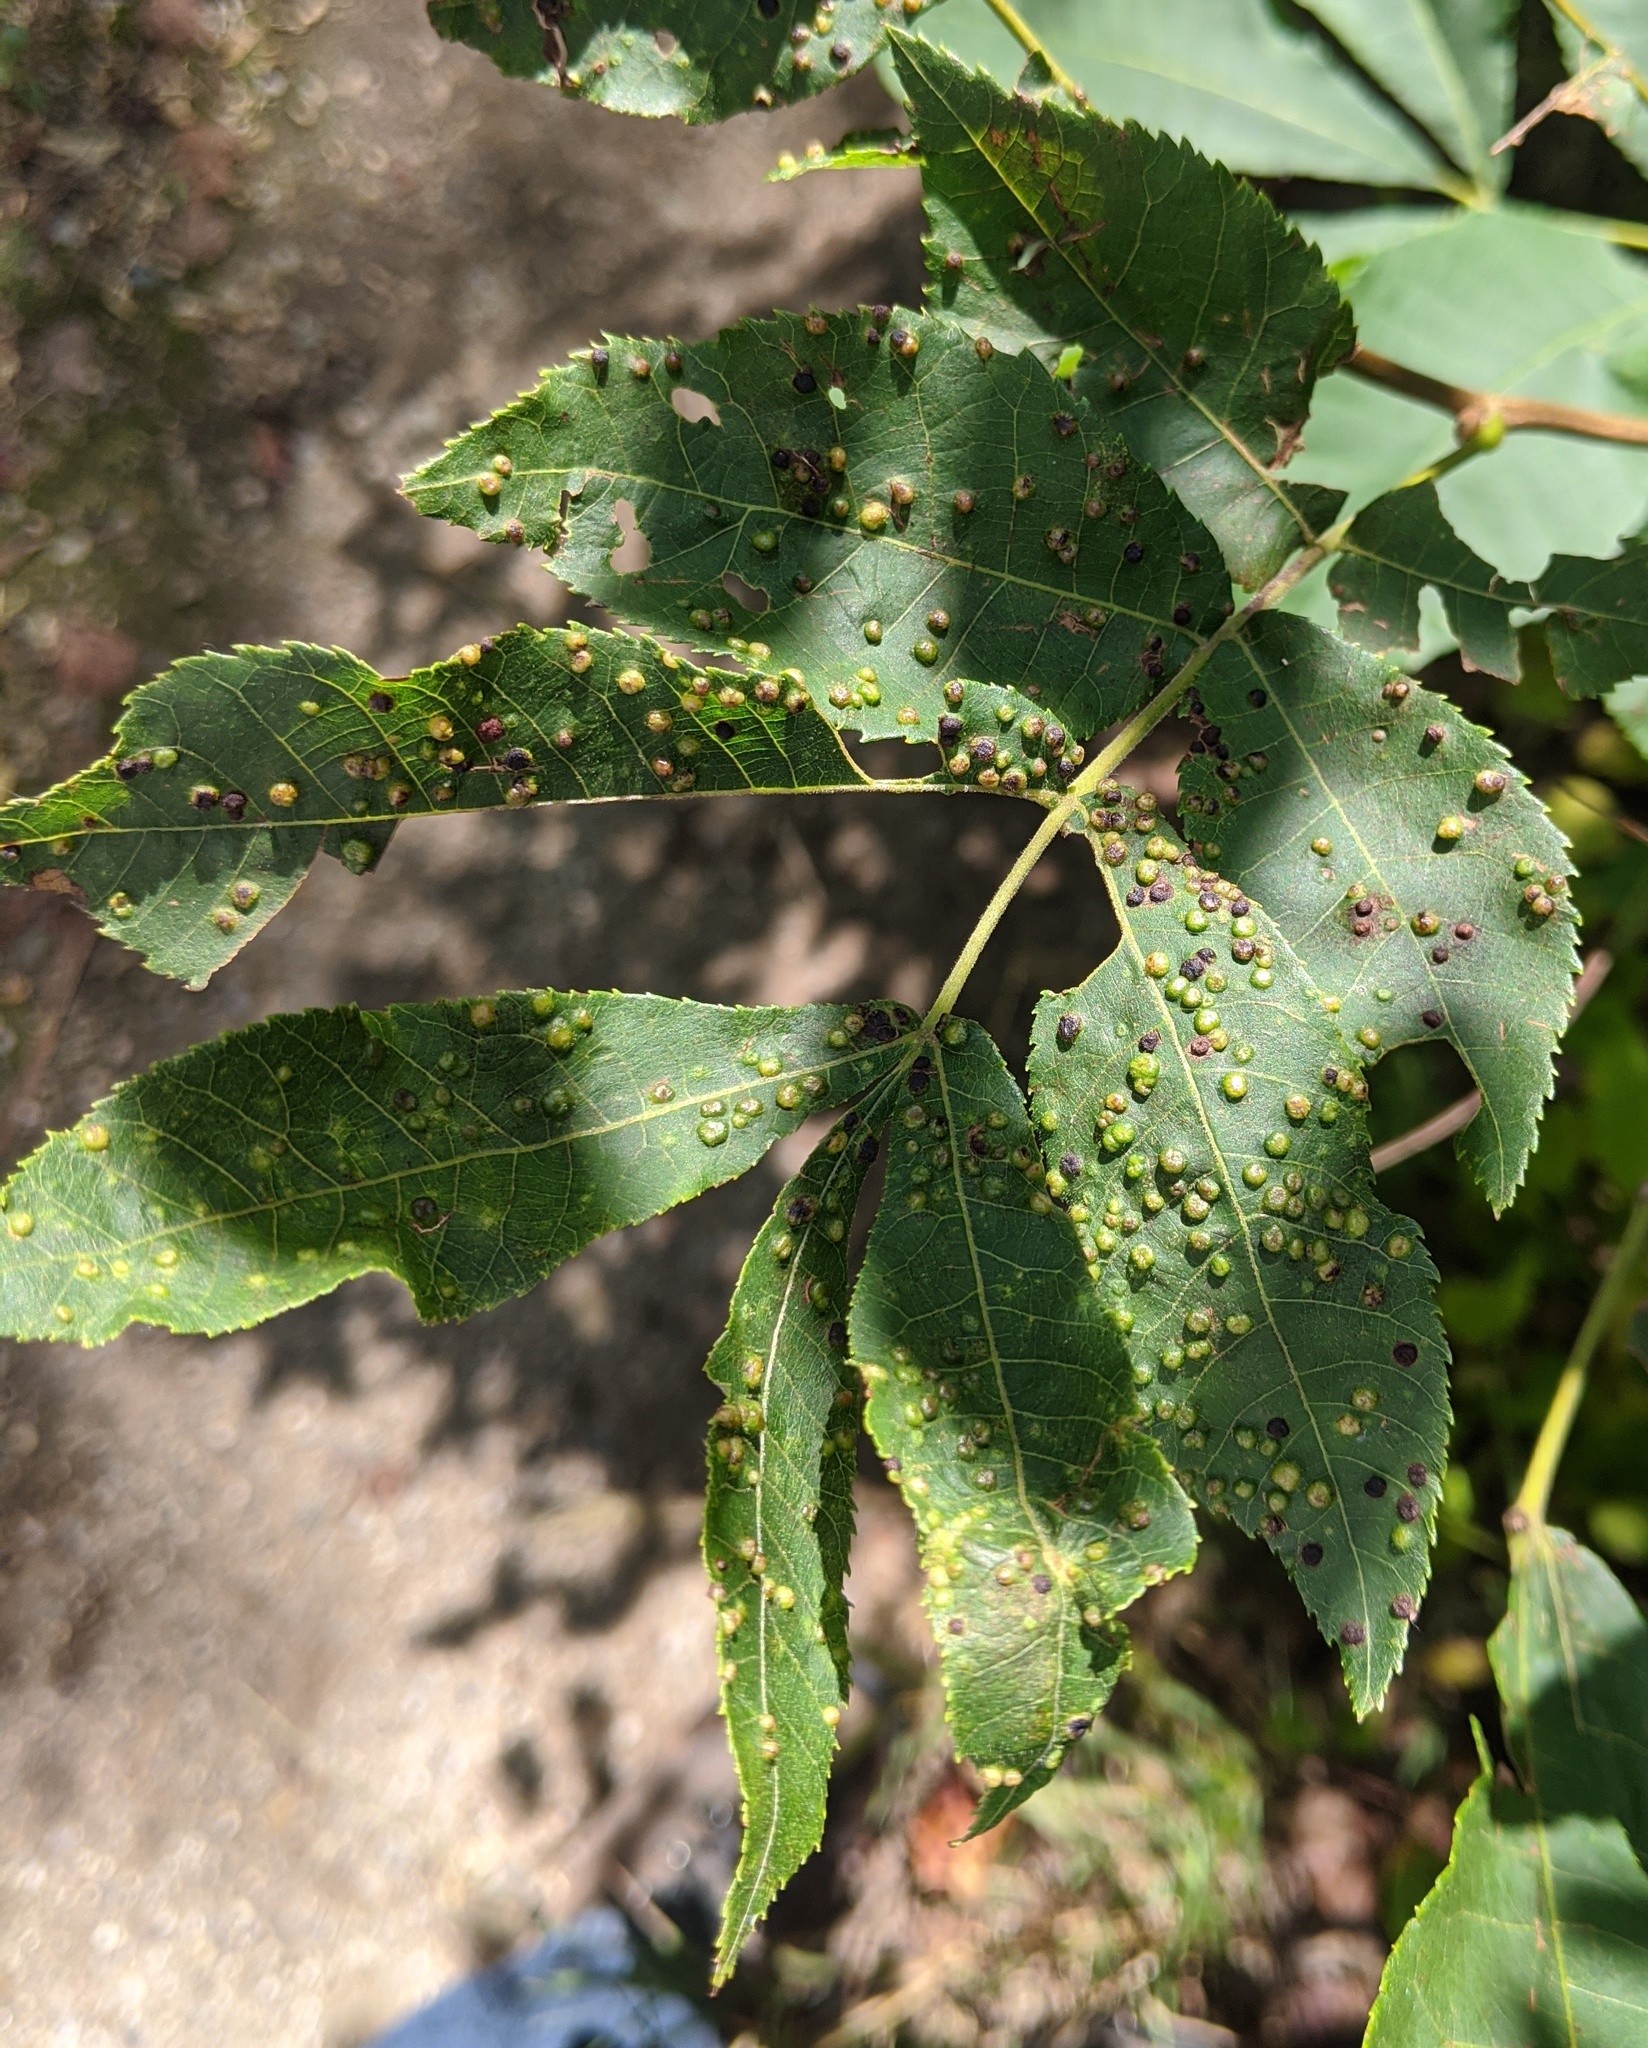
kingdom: Animalia
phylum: Arthropoda
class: Insecta
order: Hemiptera
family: Phylloxeridae
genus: Phylloxera
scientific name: Phylloxera caryae-semen
